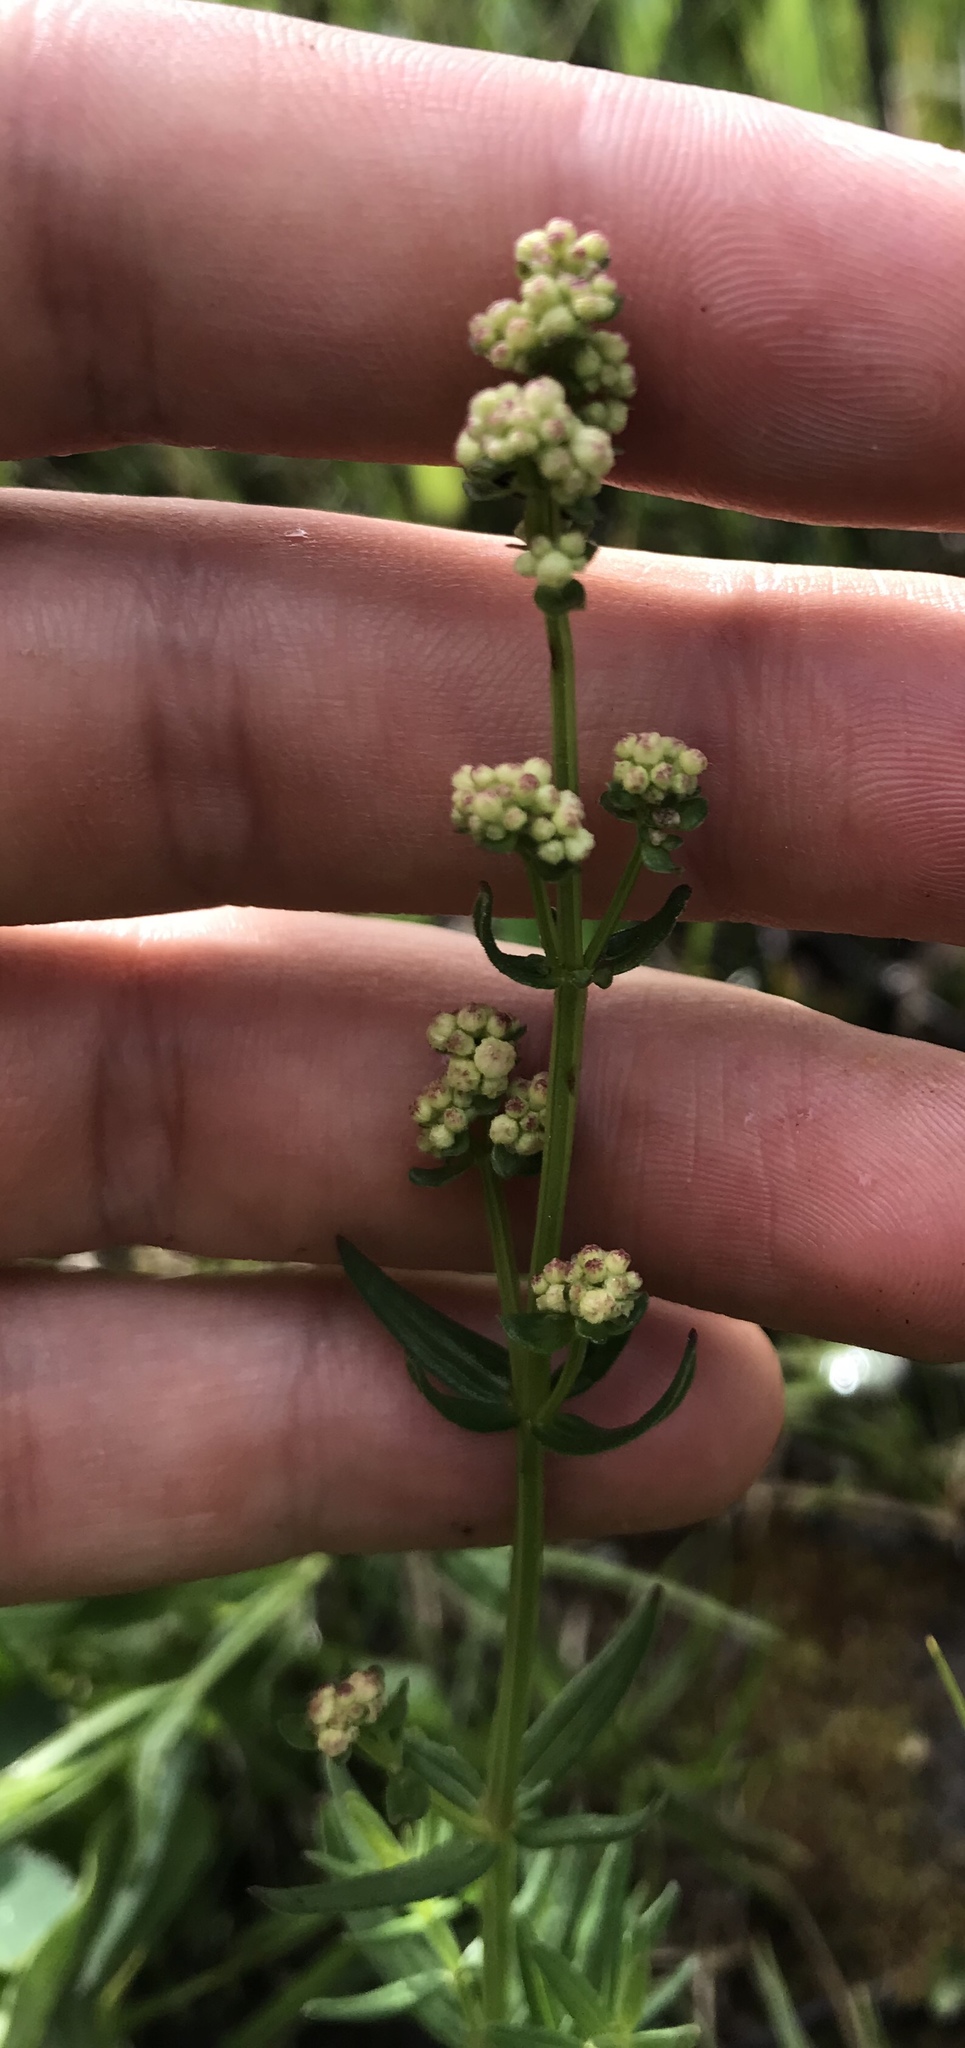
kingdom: Plantae
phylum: Tracheophyta
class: Magnoliopsida
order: Gentianales
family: Rubiaceae
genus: Galium
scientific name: Galium boreale
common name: Northern bedstraw
